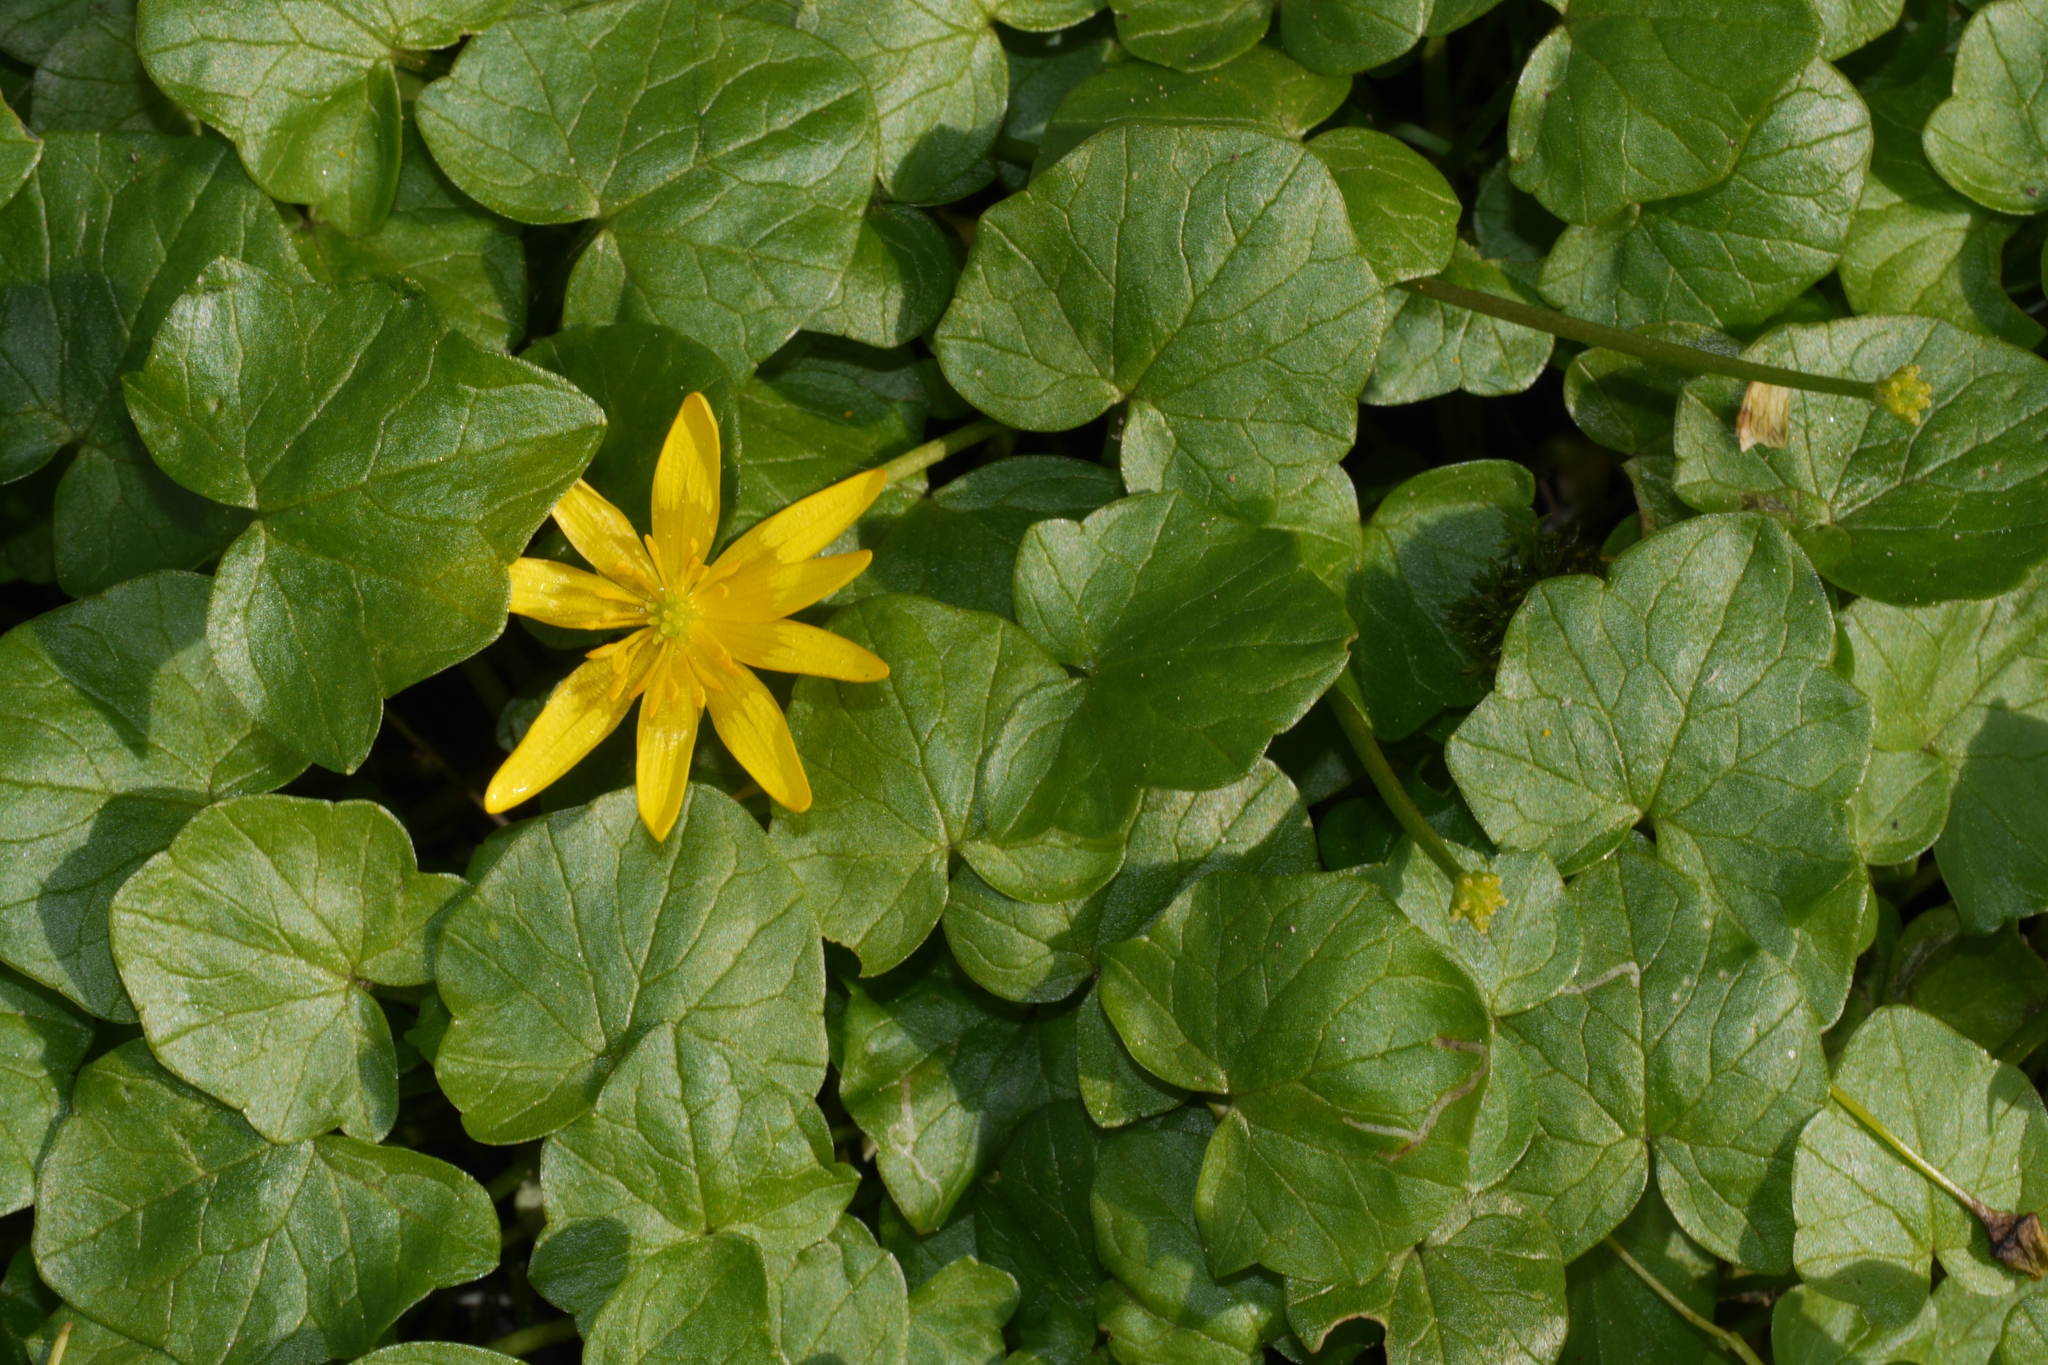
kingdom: Plantae
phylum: Tracheophyta
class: Magnoliopsida
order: Ranunculales
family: Ranunculaceae
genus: Ficaria
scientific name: Ficaria verna
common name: Lesser celandine
